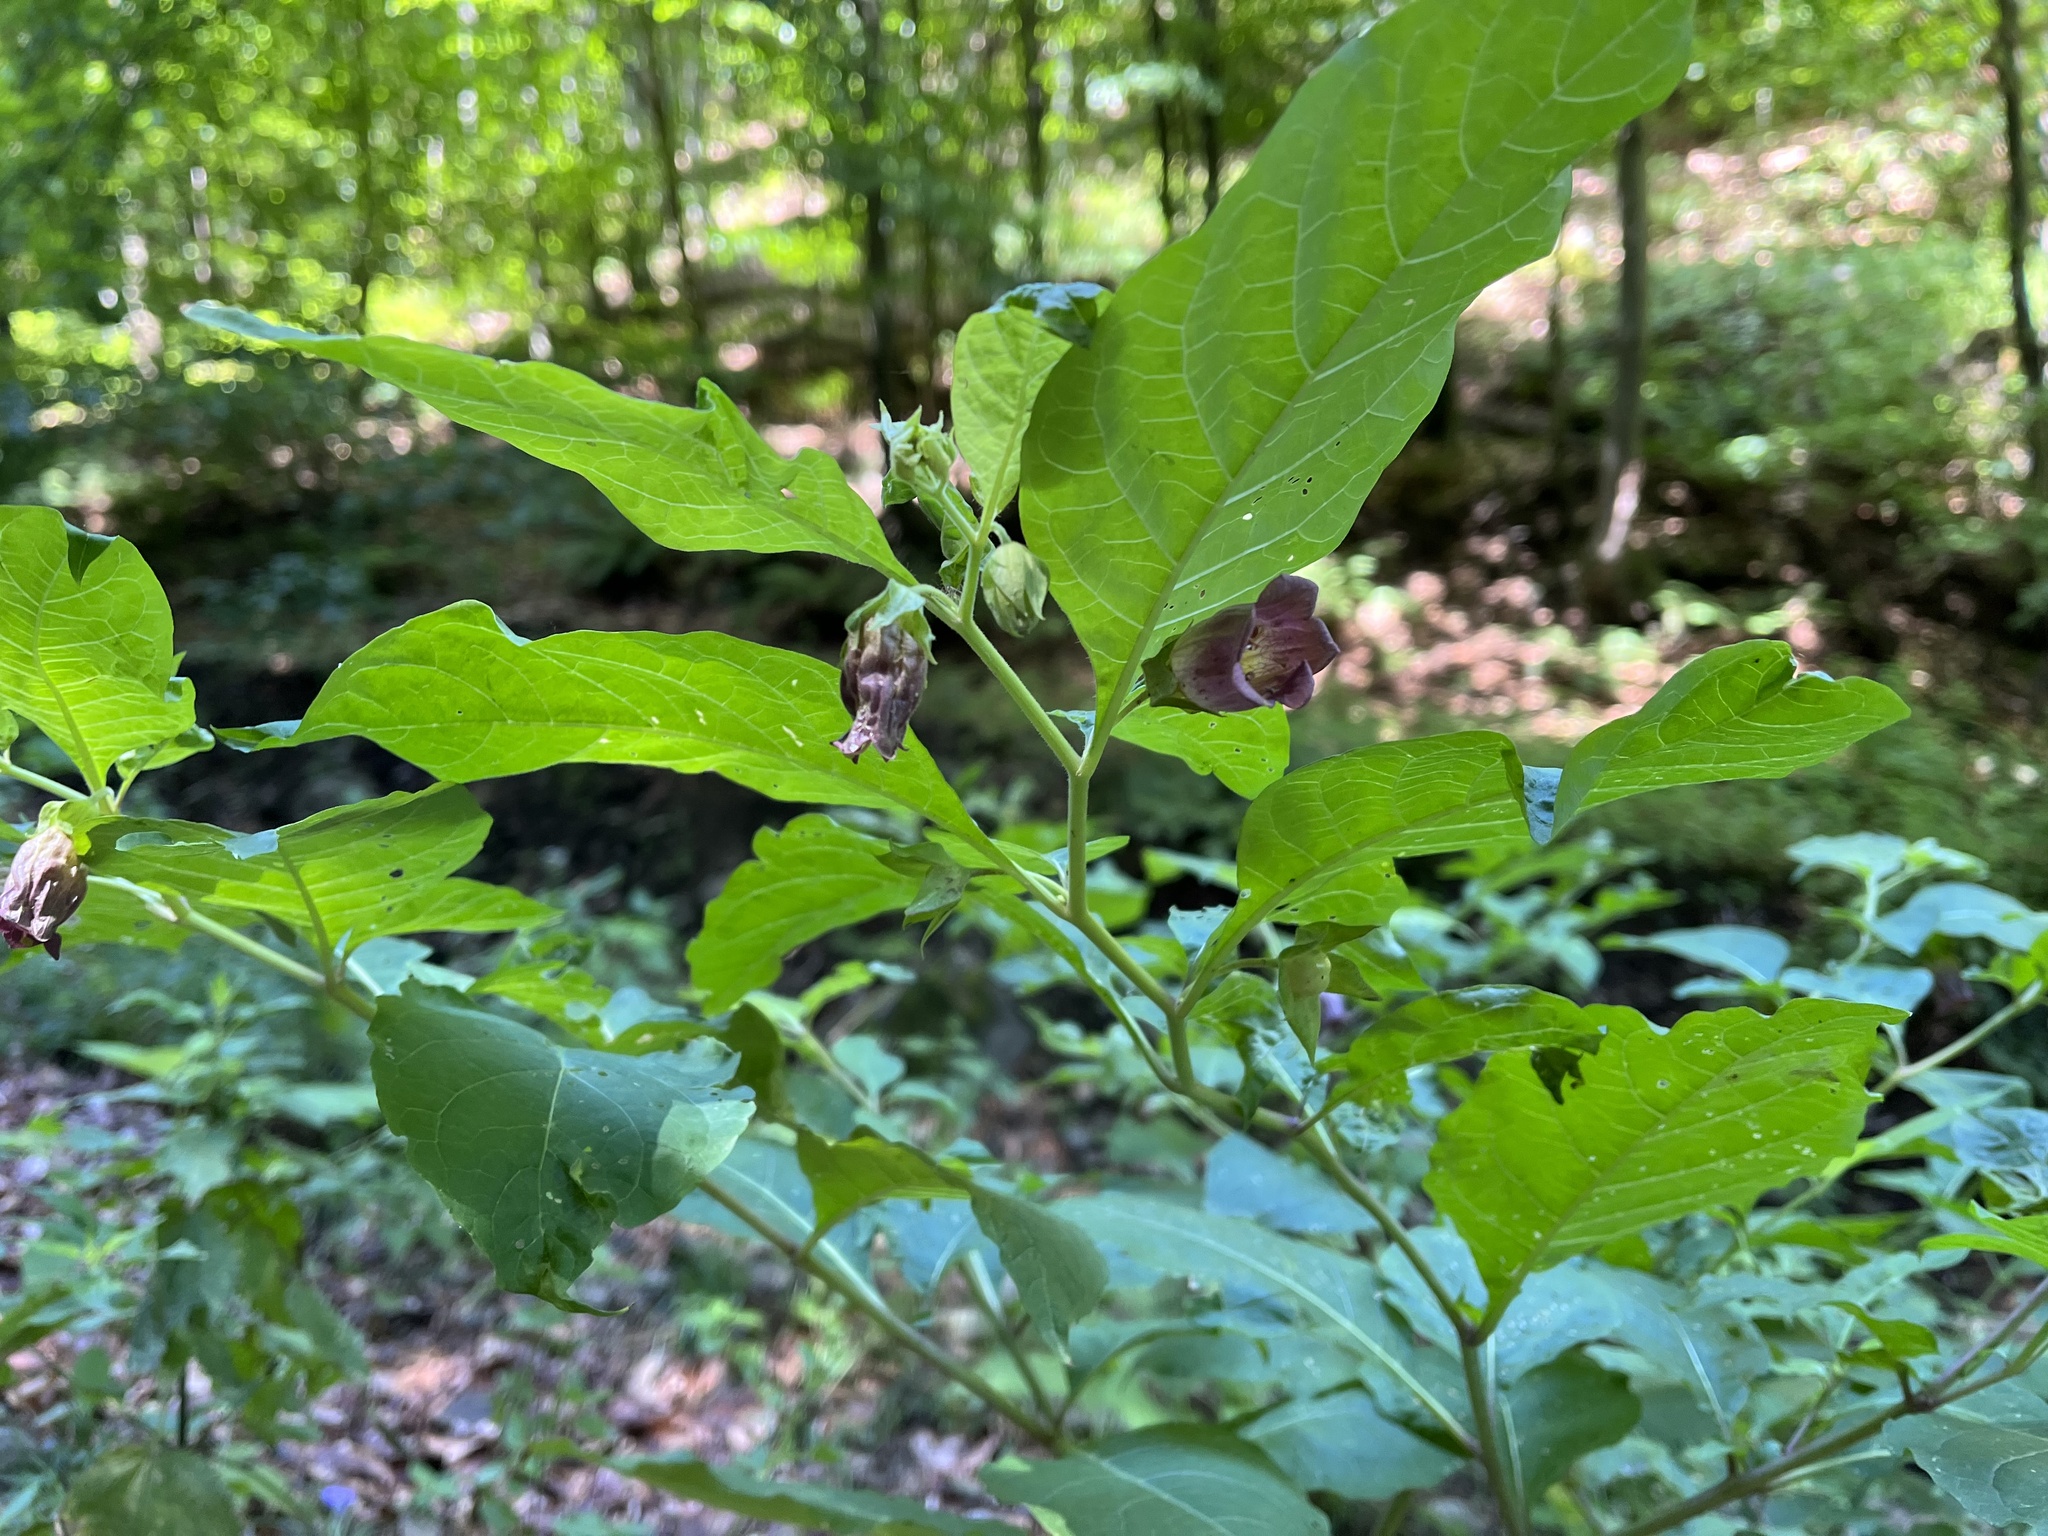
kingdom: Plantae
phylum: Tracheophyta
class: Magnoliopsida
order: Solanales
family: Solanaceae
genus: Atropa
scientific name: Atropa belladonna
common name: Deadly nightshade
